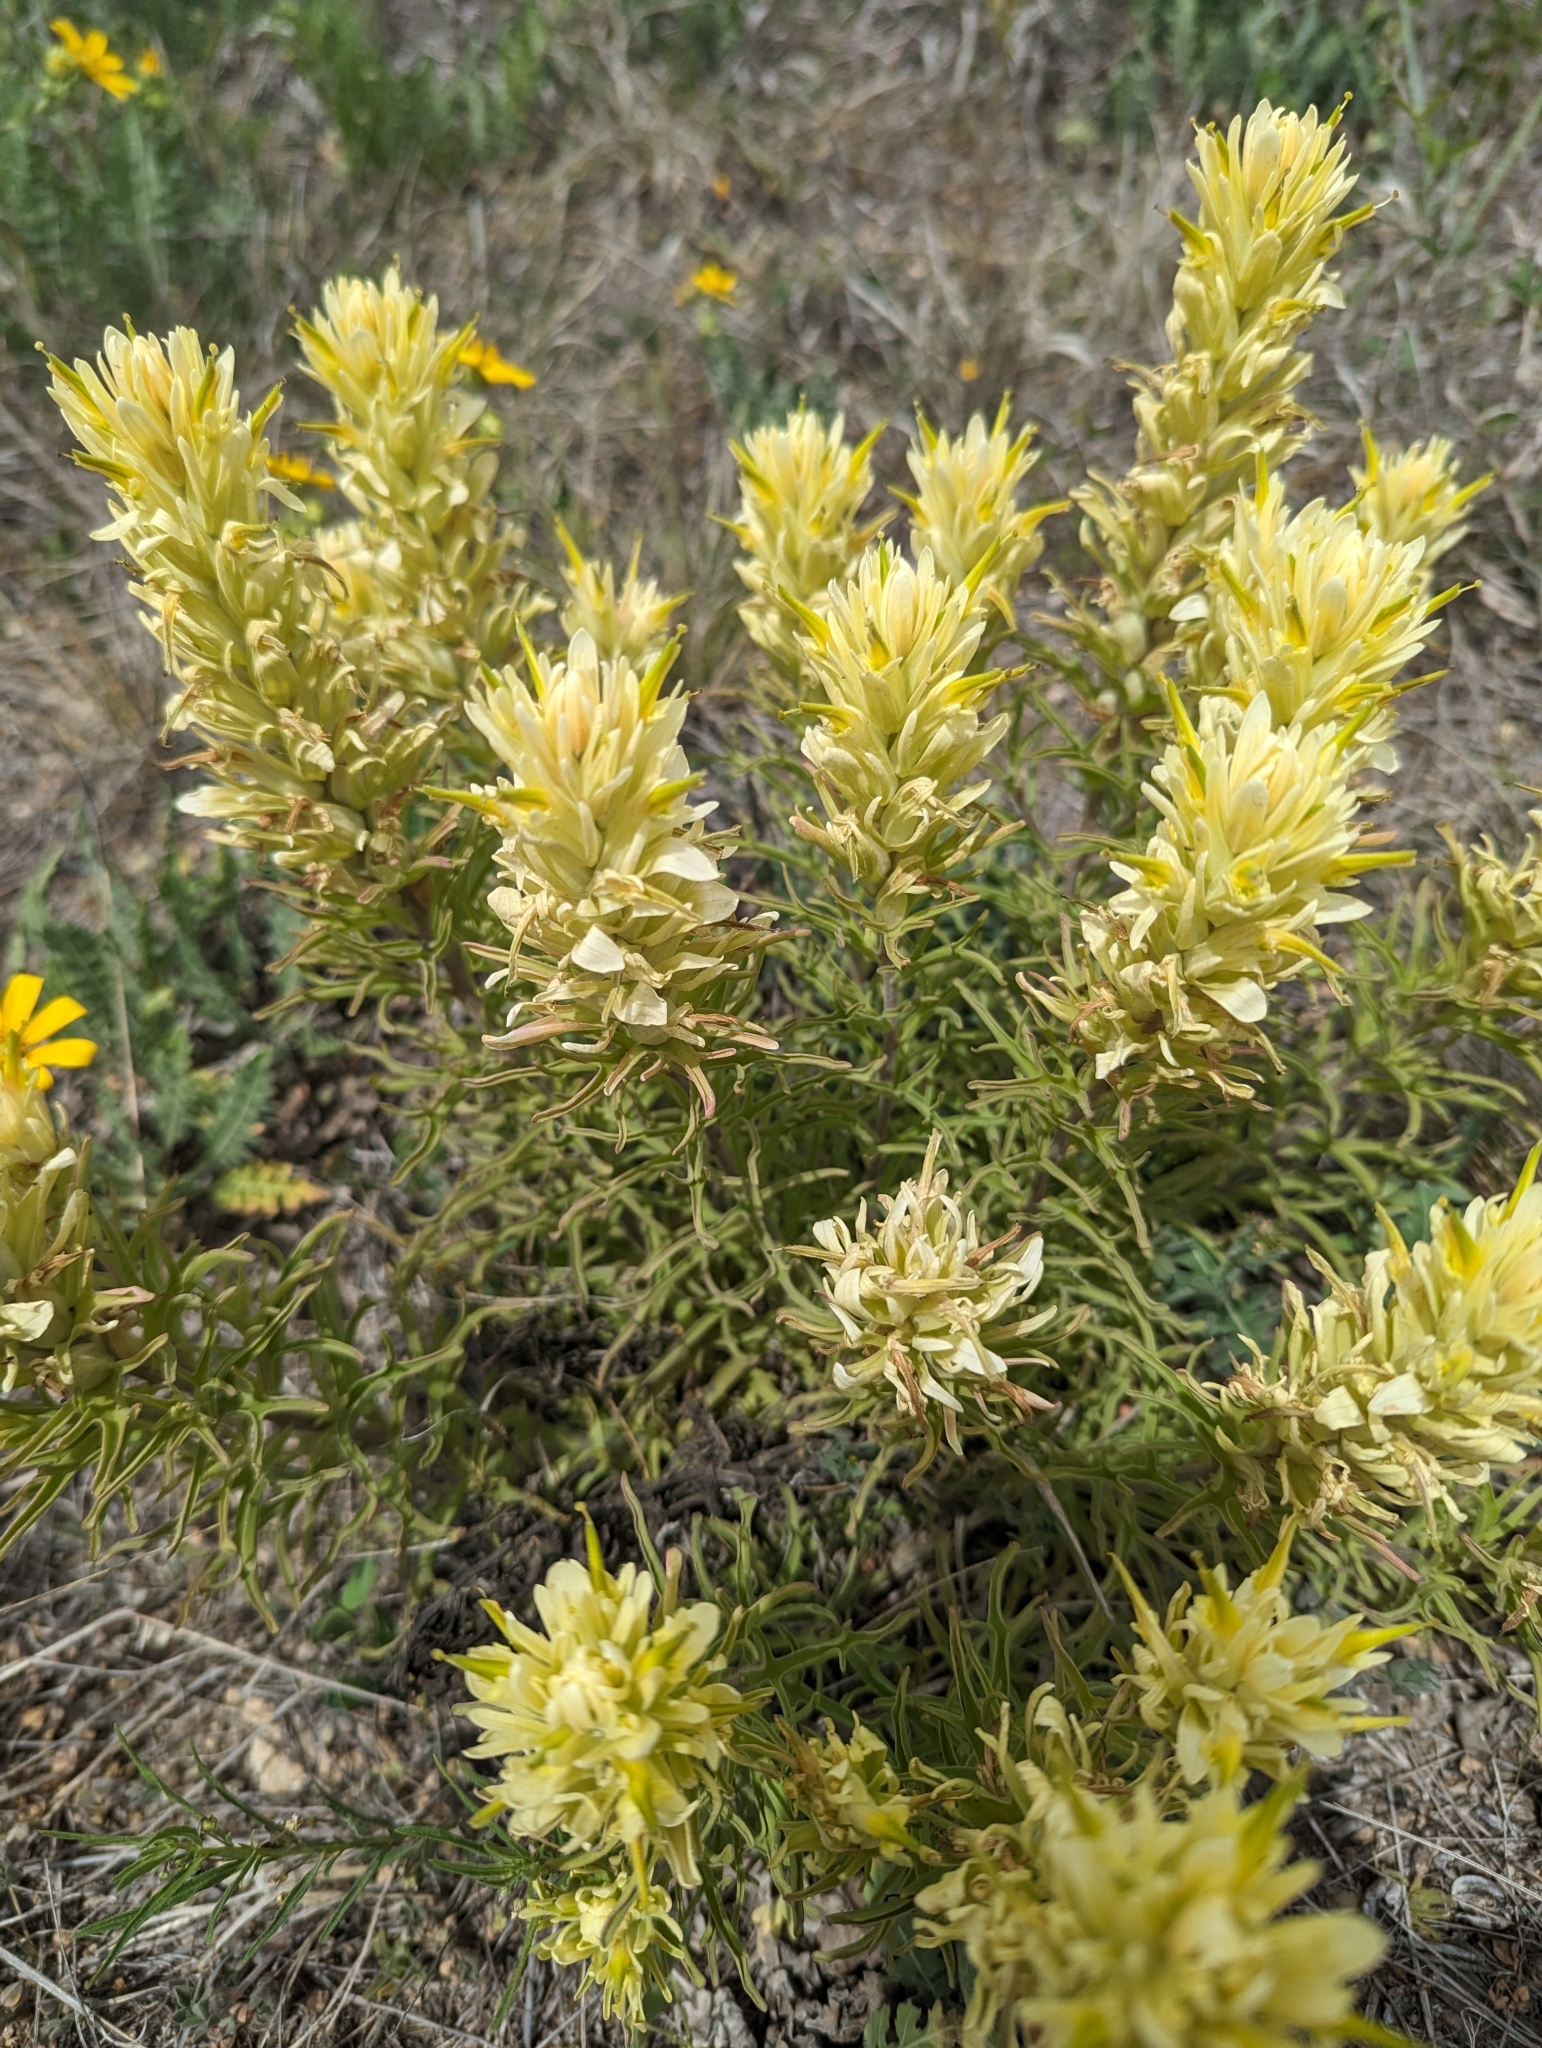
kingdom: Plantae
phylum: Tracheophyta
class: Magnoliopsida
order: Lamiales
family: Orobanchaceae
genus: Castilleja
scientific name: Castilleja citrina
